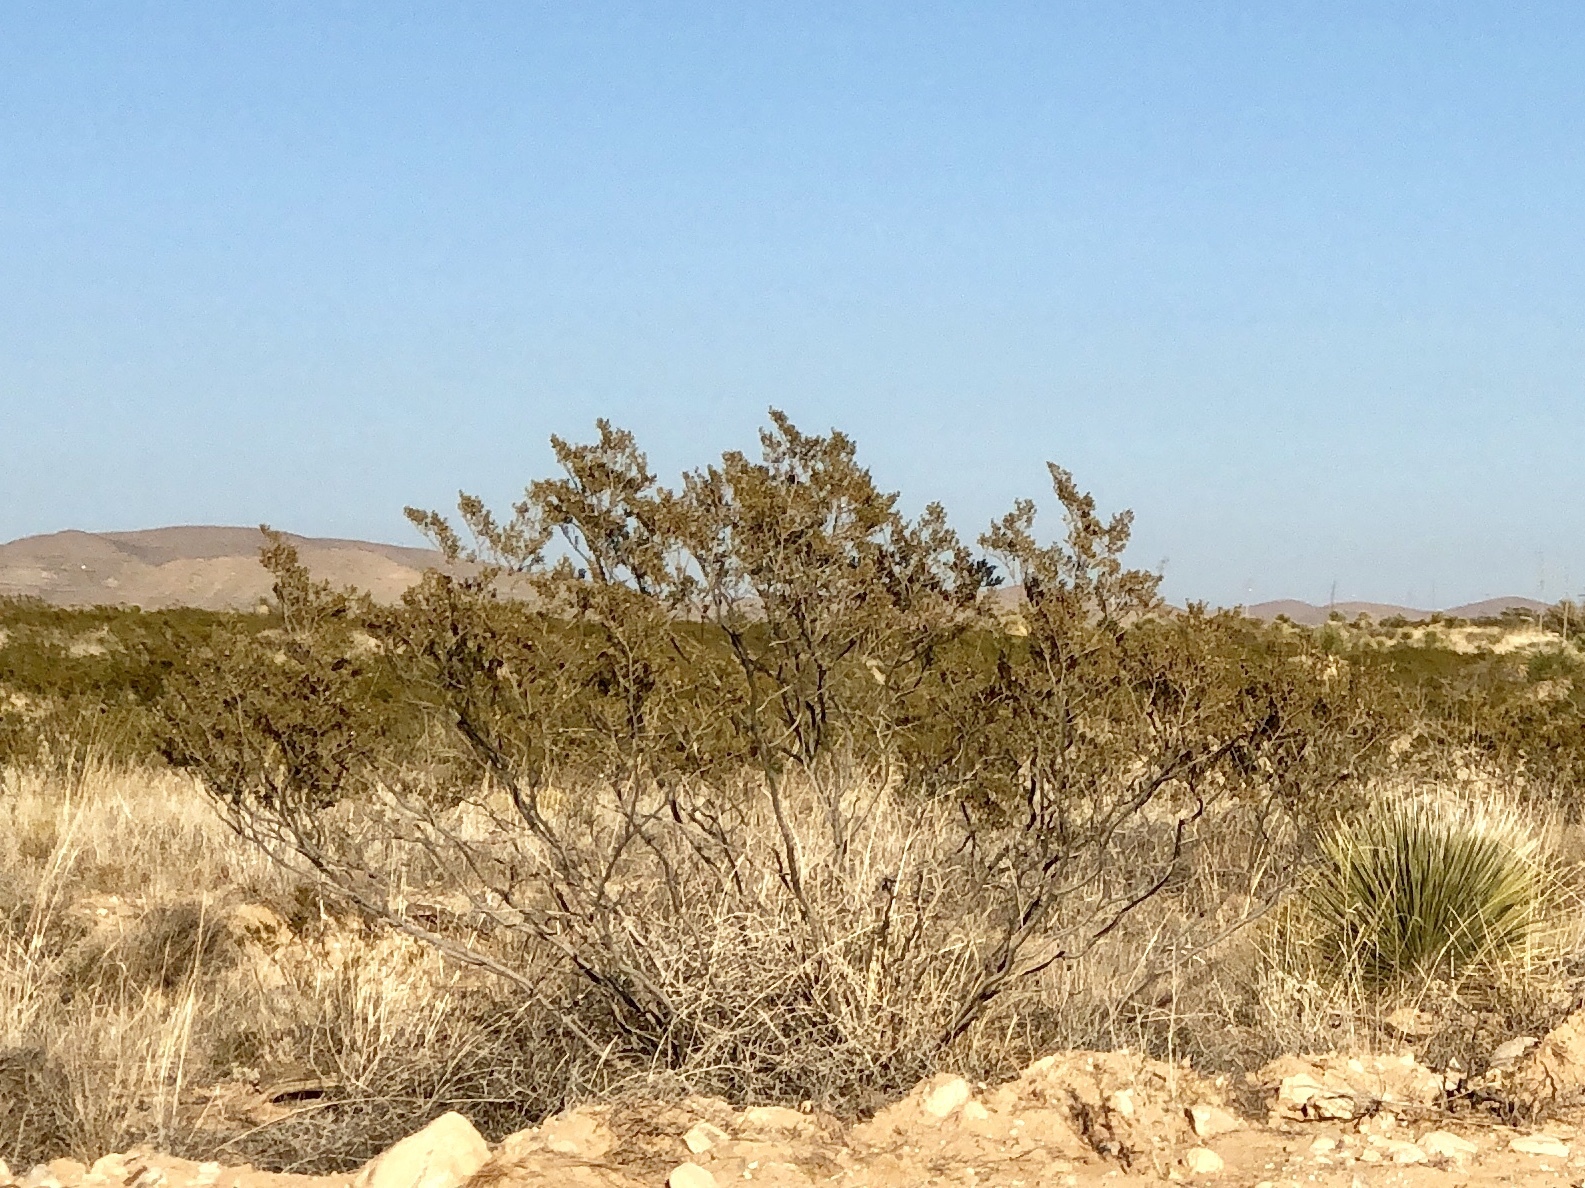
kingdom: Plantae
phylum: Tracheophyta
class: Magnoliopsida
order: Zygophyllales
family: Zygophyllaceae
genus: Larrea
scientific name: Larrea tridentata
